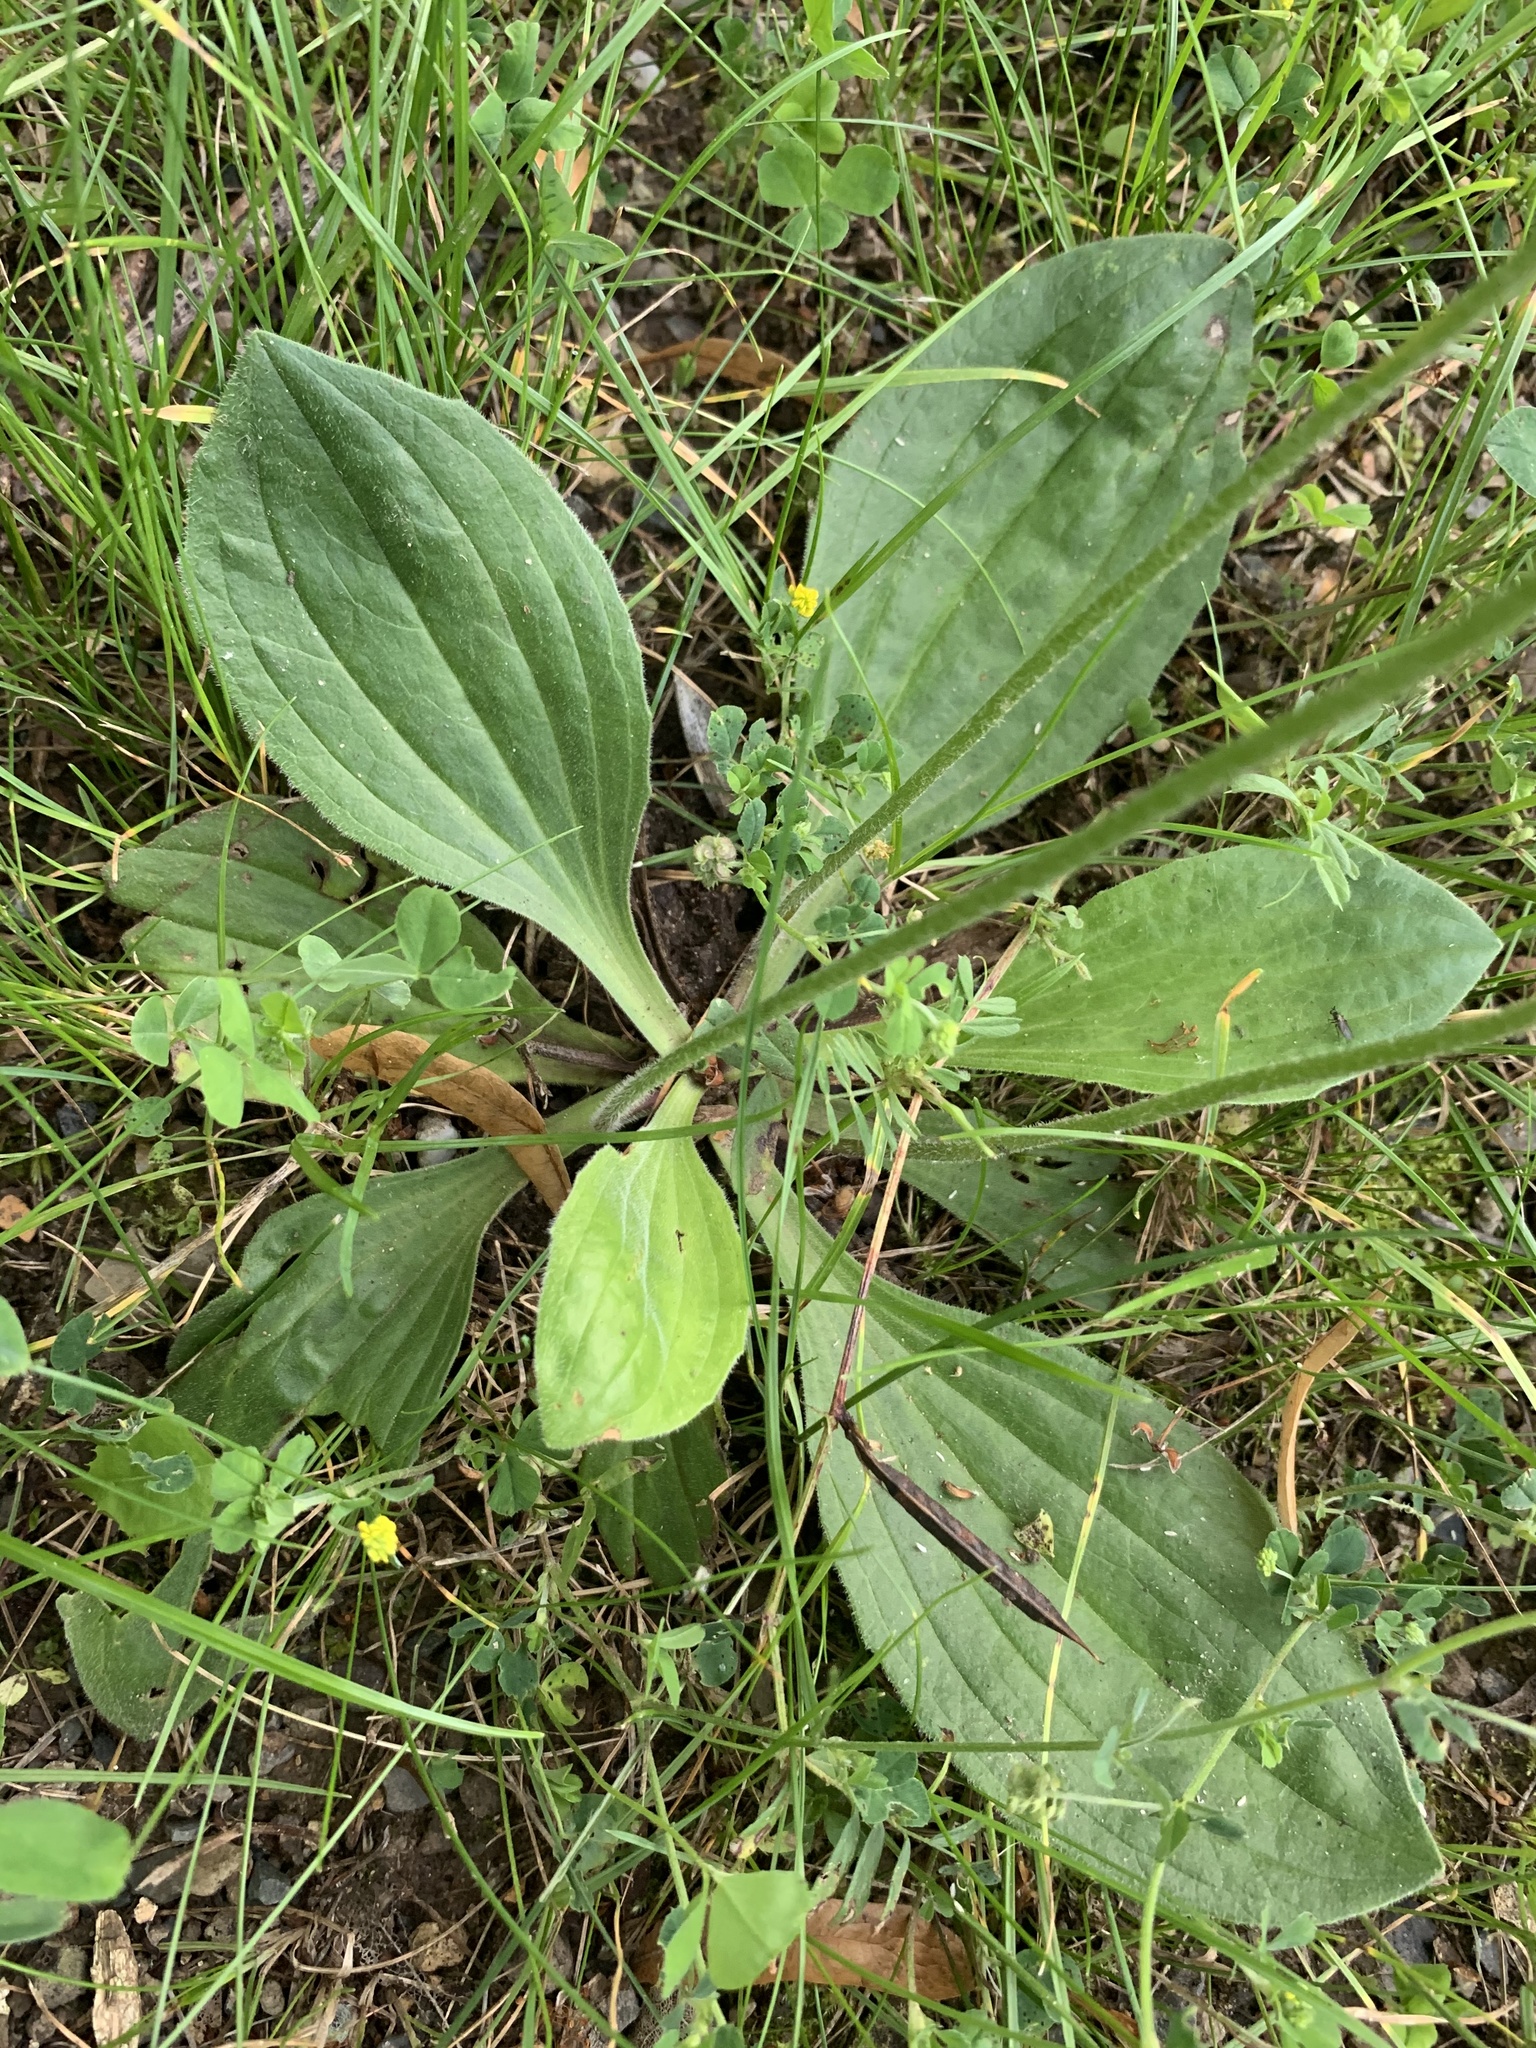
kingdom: Plantae
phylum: Tracheophyta
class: Magnoliopsida
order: Lamiales
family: Plantaginaceae
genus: Plantago
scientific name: Plantago media
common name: Hoary plantain
